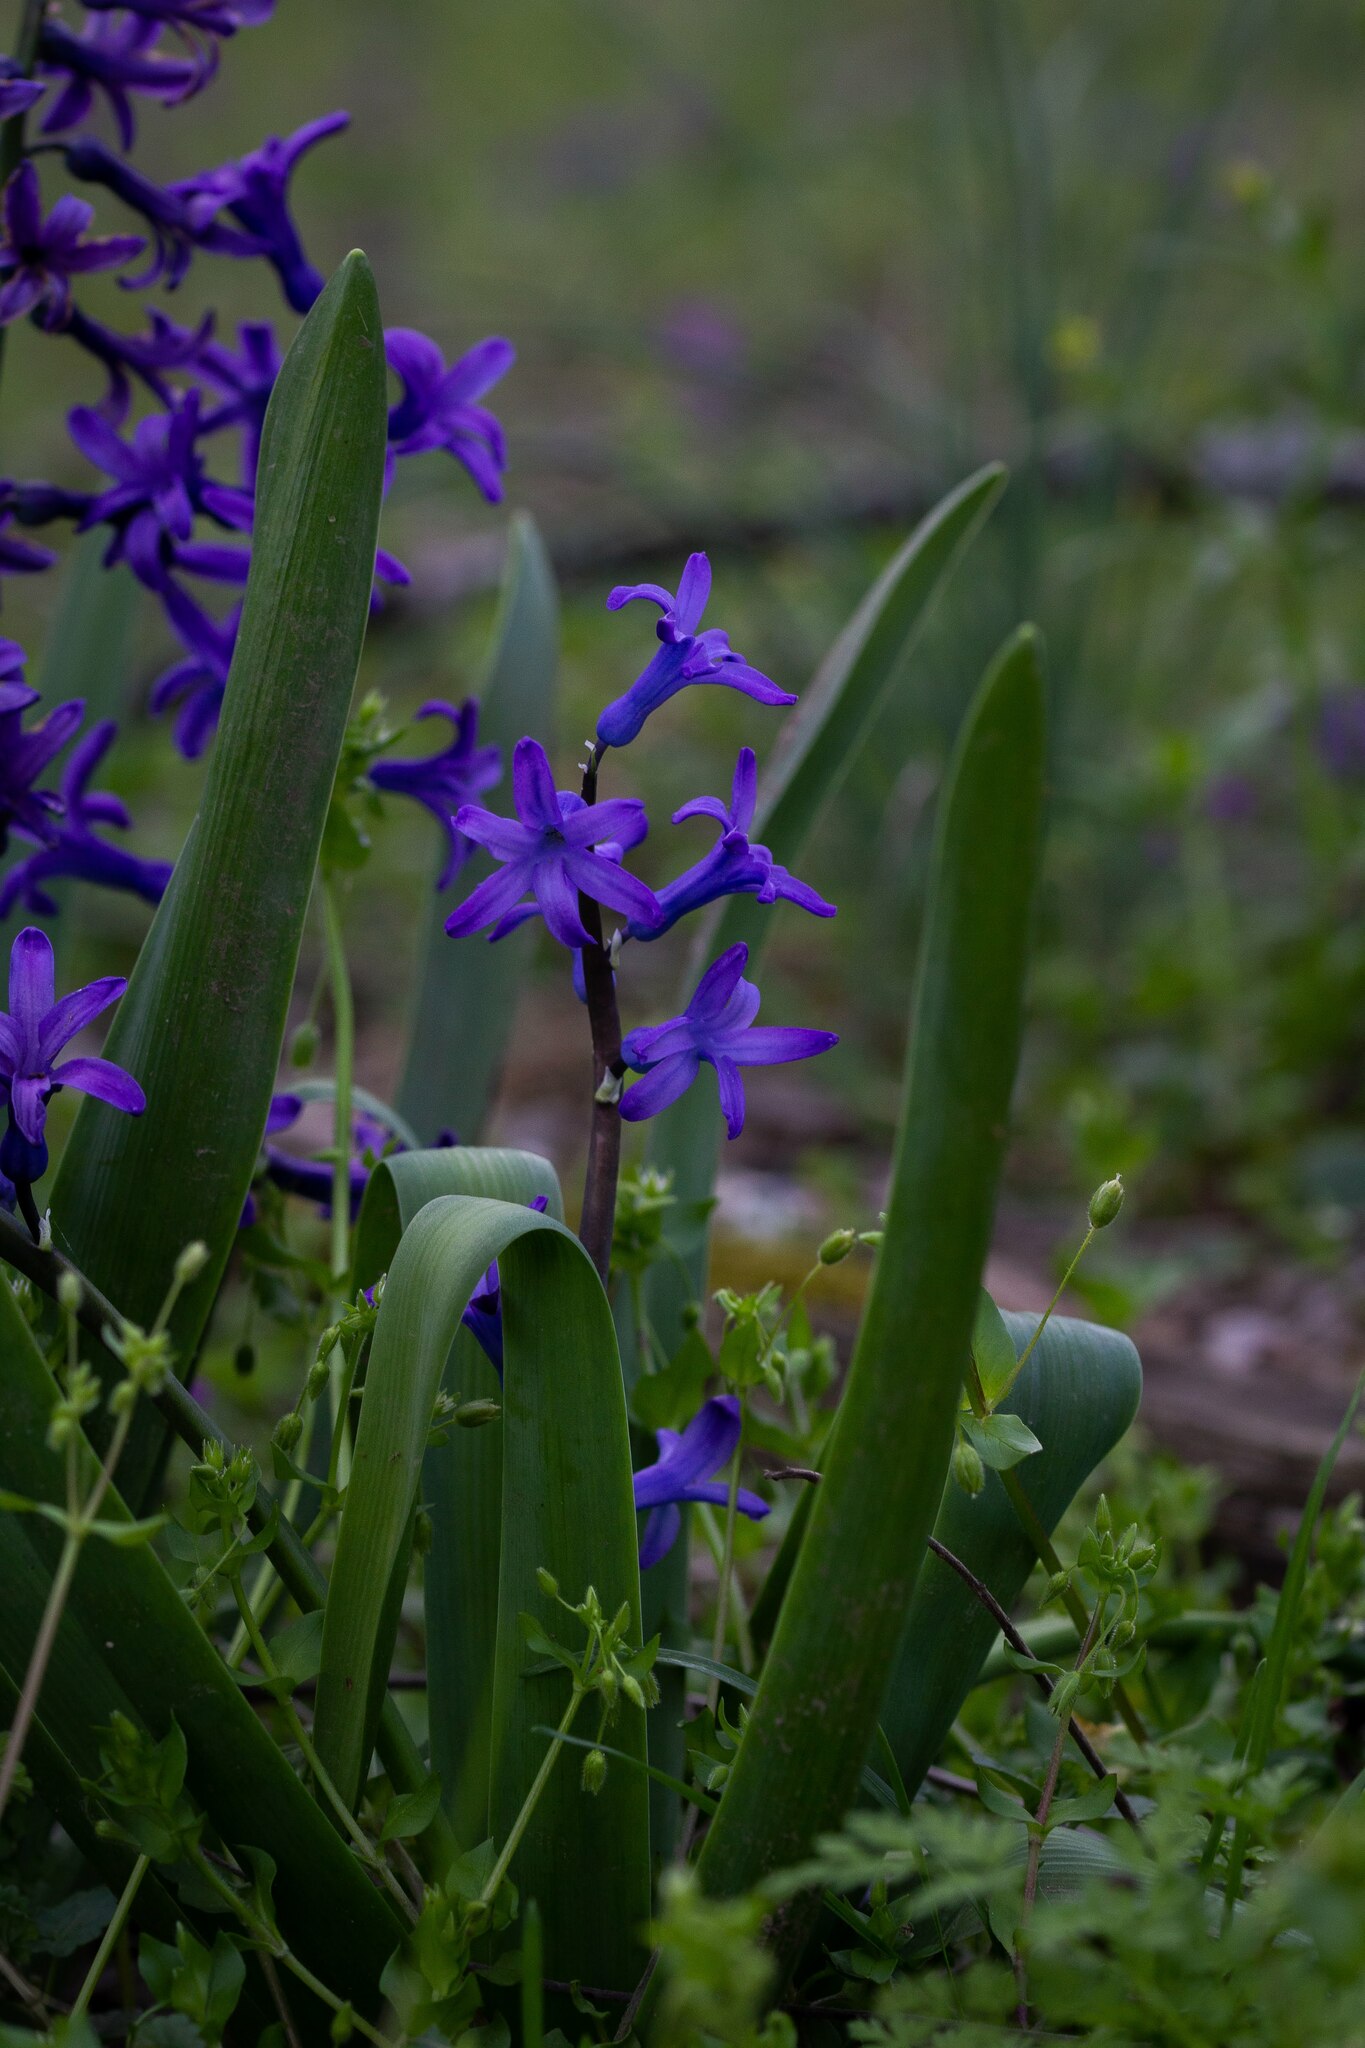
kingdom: Plantae
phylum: Tracheophyta
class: Liliopsida
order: Asparagales
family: Asparagaceae
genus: Hyacinthus
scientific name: Hyacinthus orientalis
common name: Hyacinth
